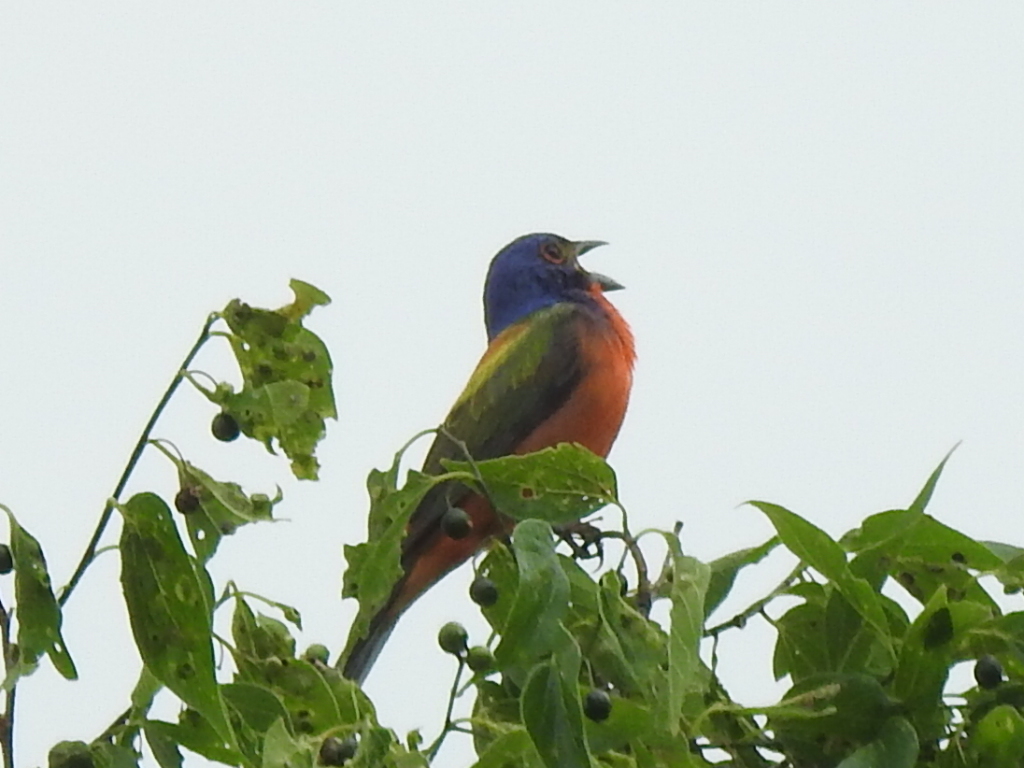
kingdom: Animalia
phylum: Chordata
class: Aves
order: Passeriformes
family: Cardinalidae
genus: Passerina
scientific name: Passerina ciris
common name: Painted bunting
